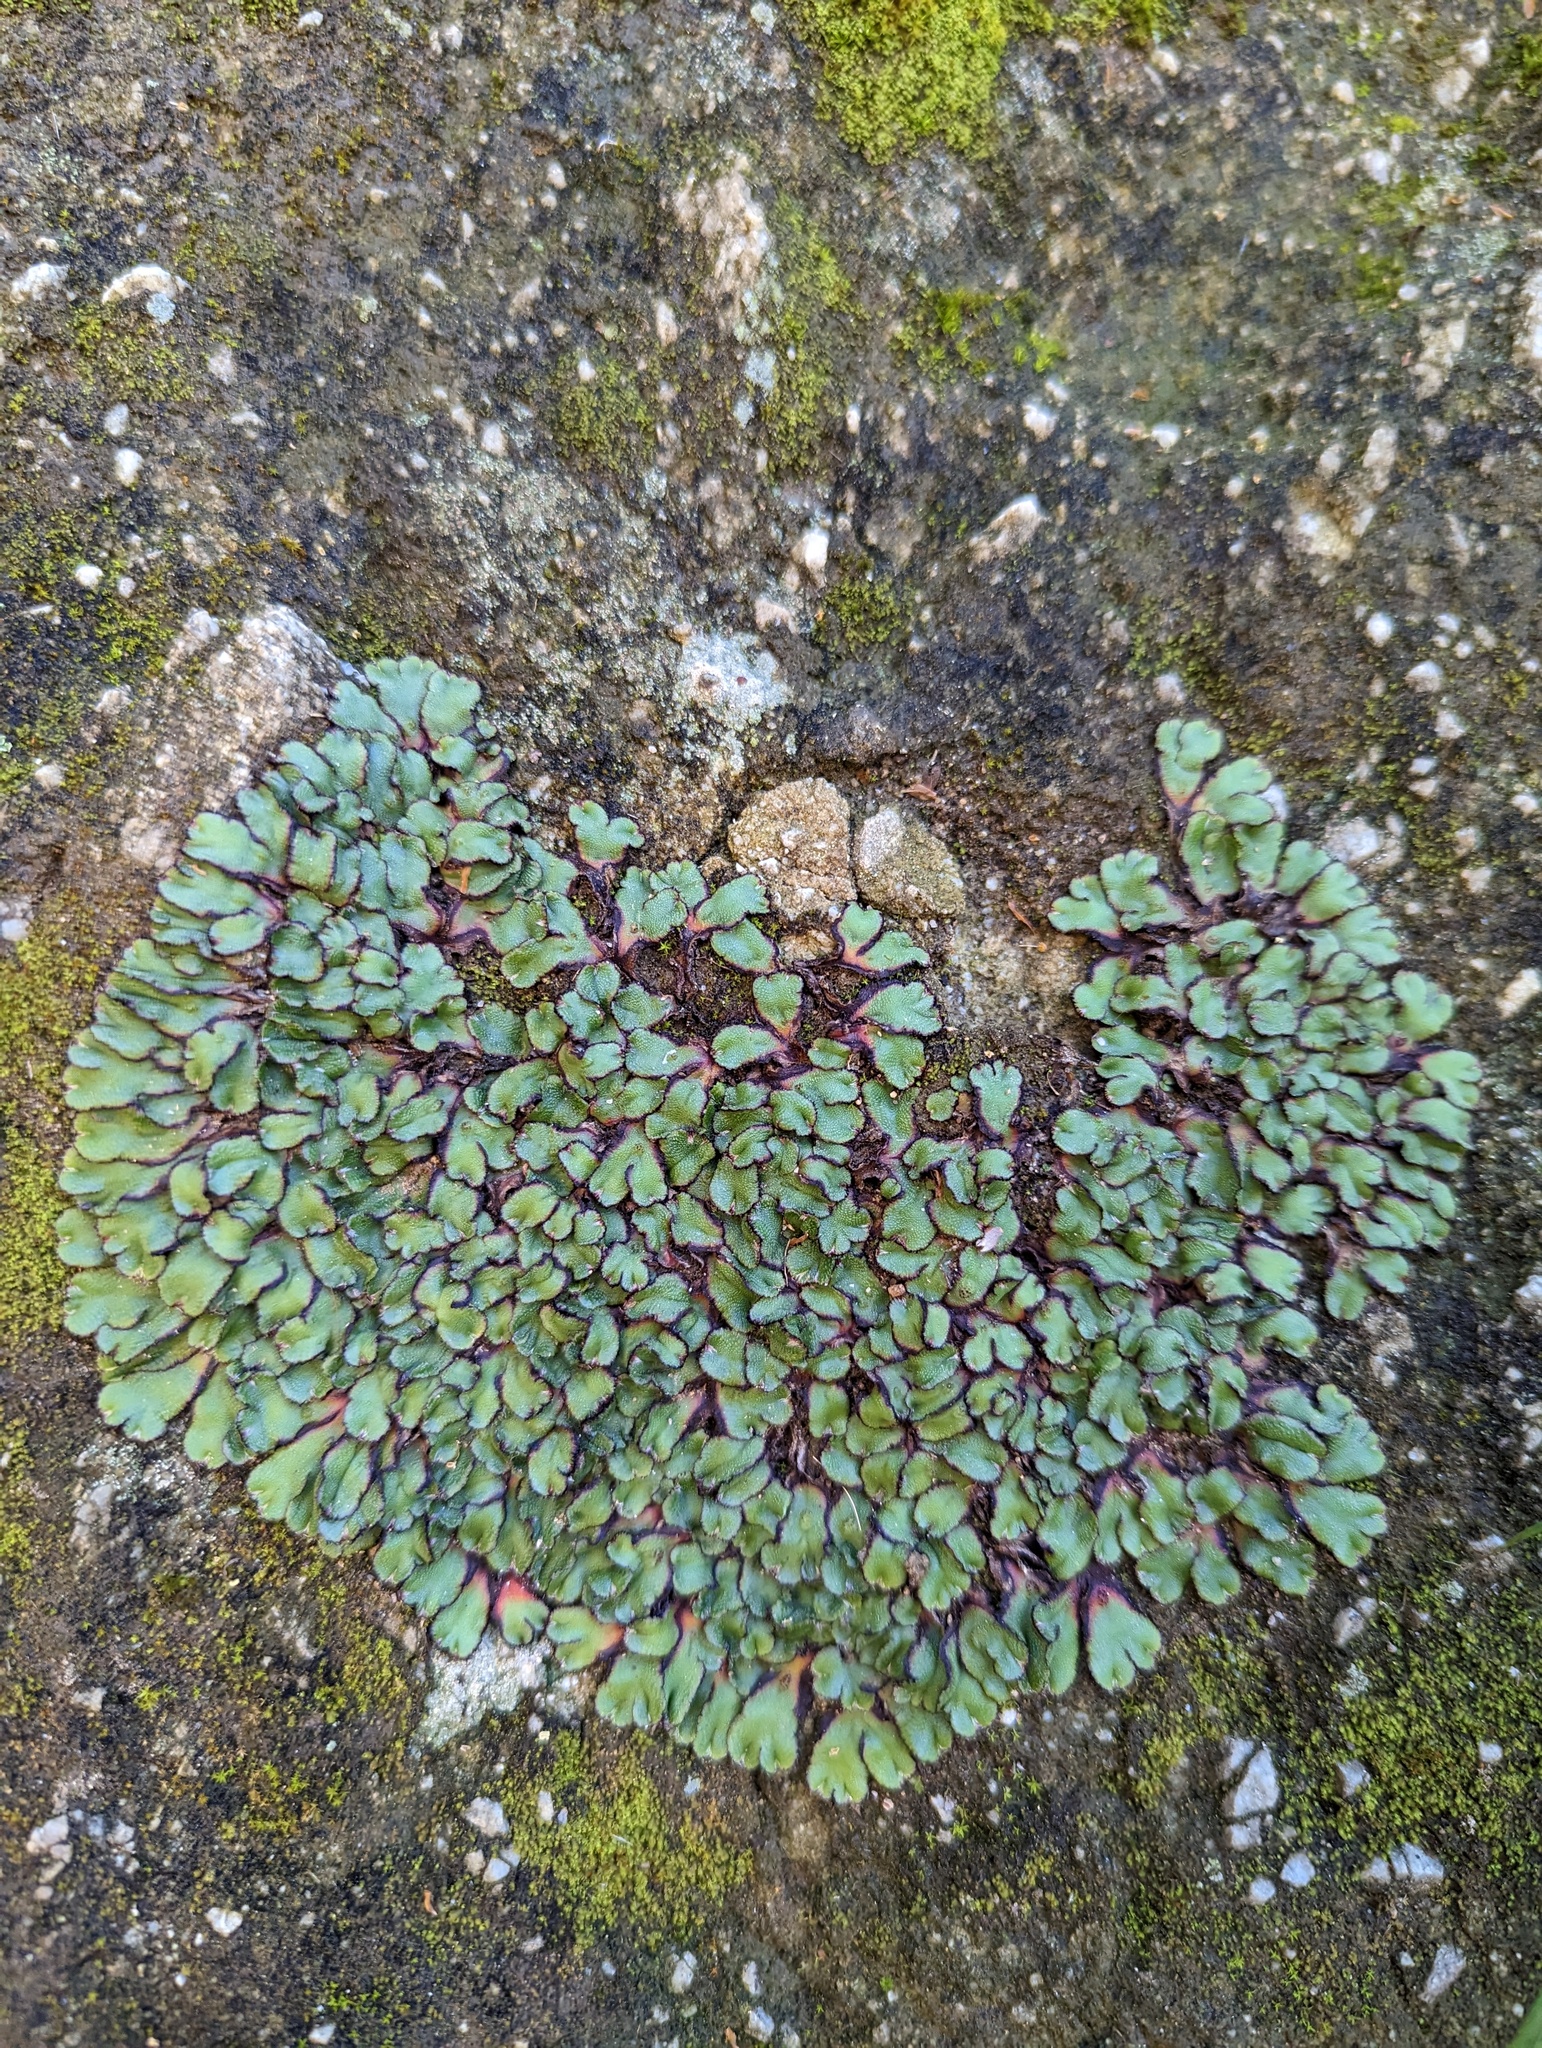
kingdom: Plantae
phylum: Marchantiophyta
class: Marchantiopsida
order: Marchantiales
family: Aytoniaceae
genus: Asterella
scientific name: Asterella californica
